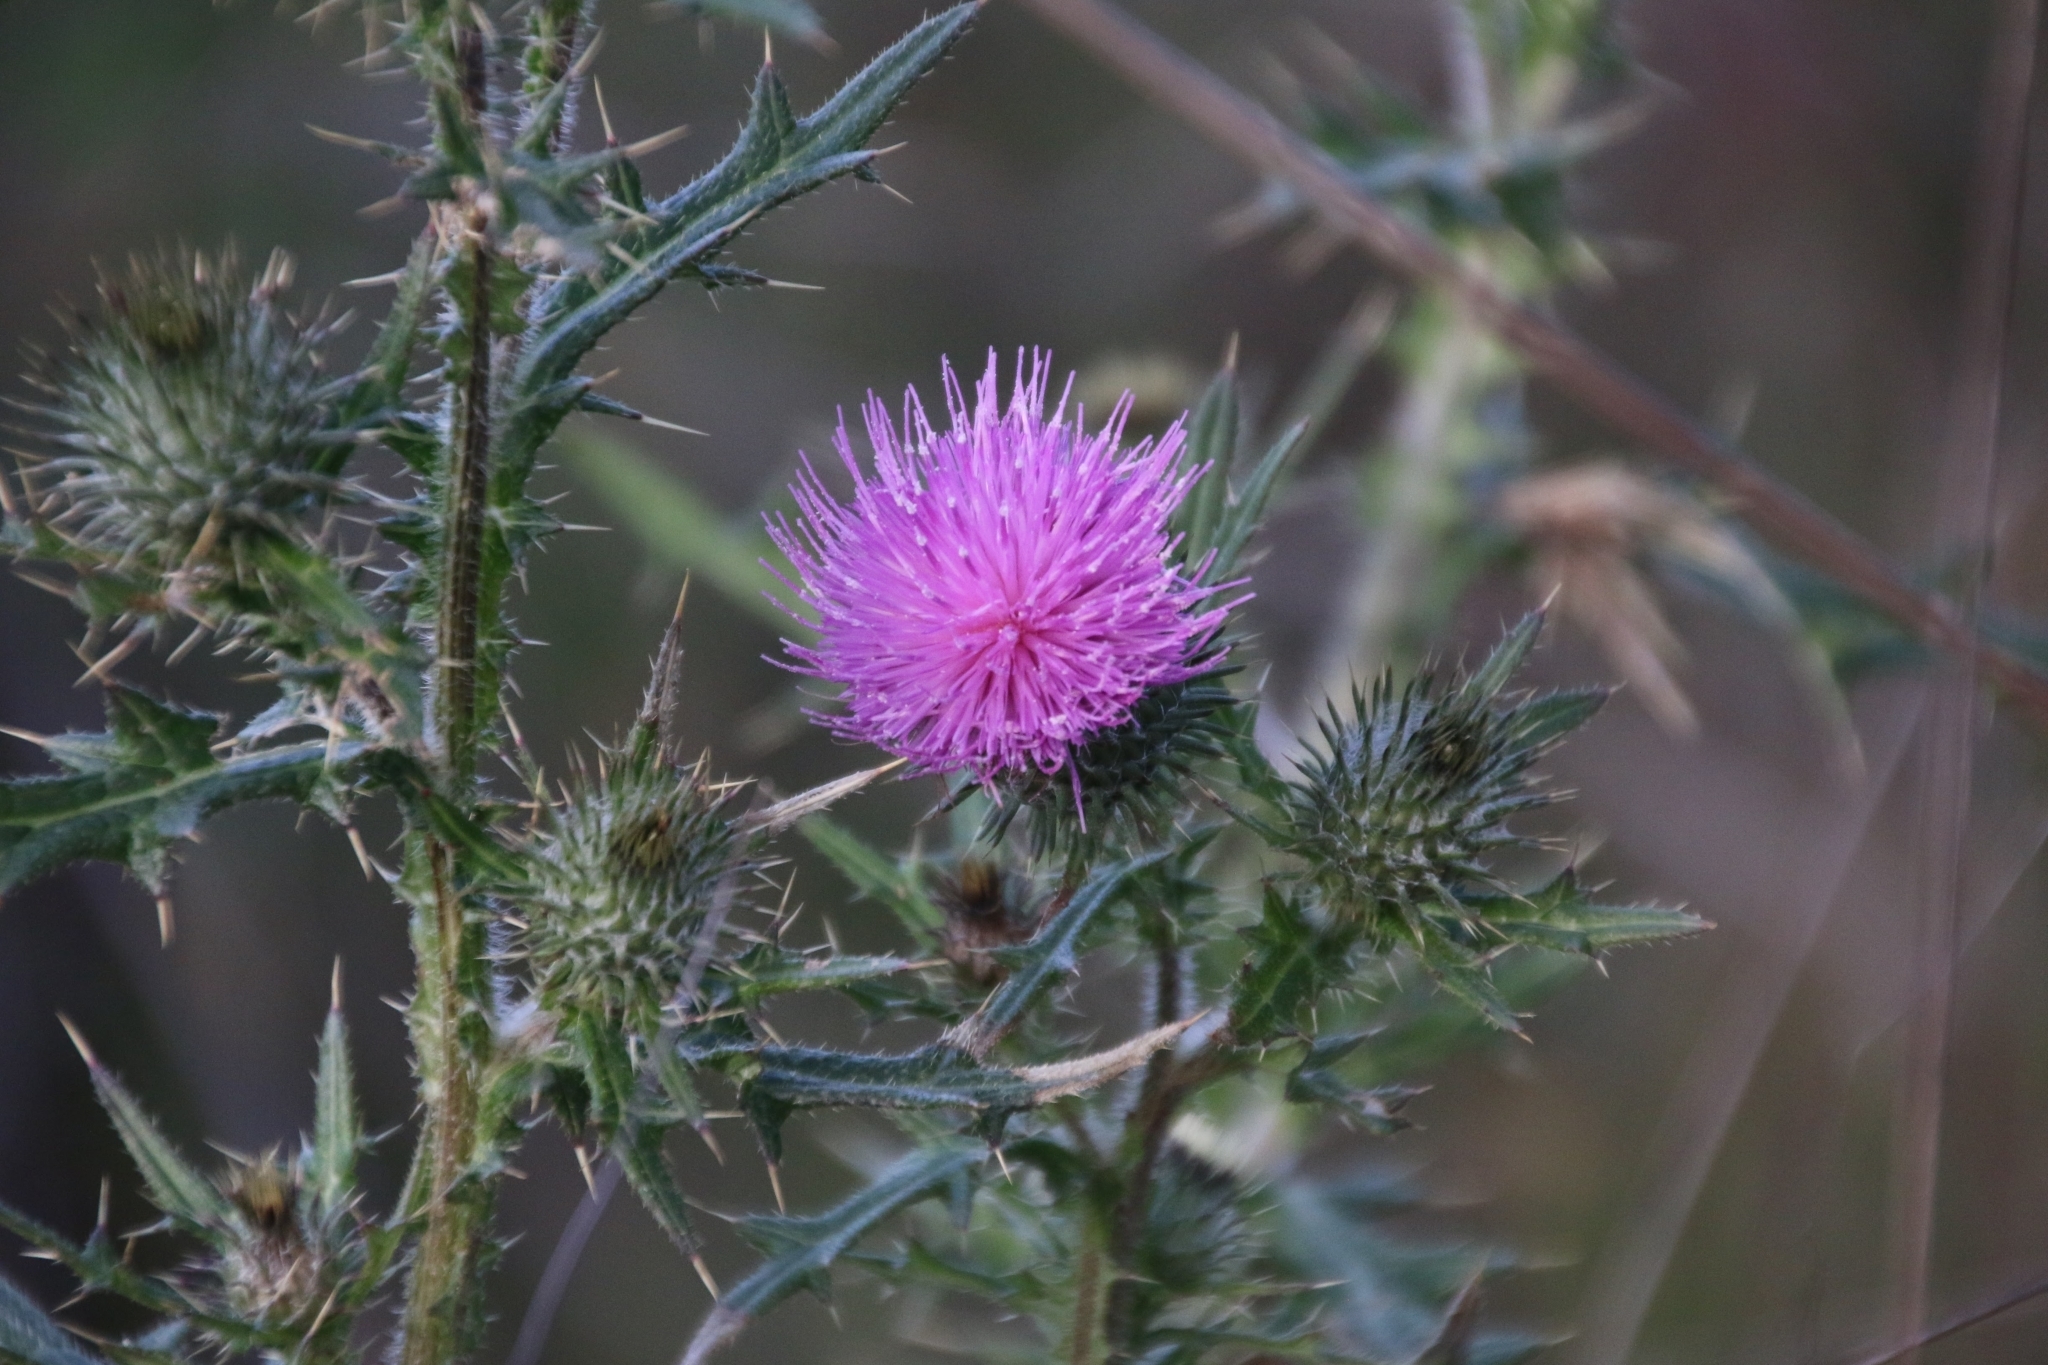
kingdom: Plantae
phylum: Tracheophyta
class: Magnoliopsida
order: Asterales
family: Asteraceae
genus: Cirsium
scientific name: Cirsium vulgare
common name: Bull thistle
